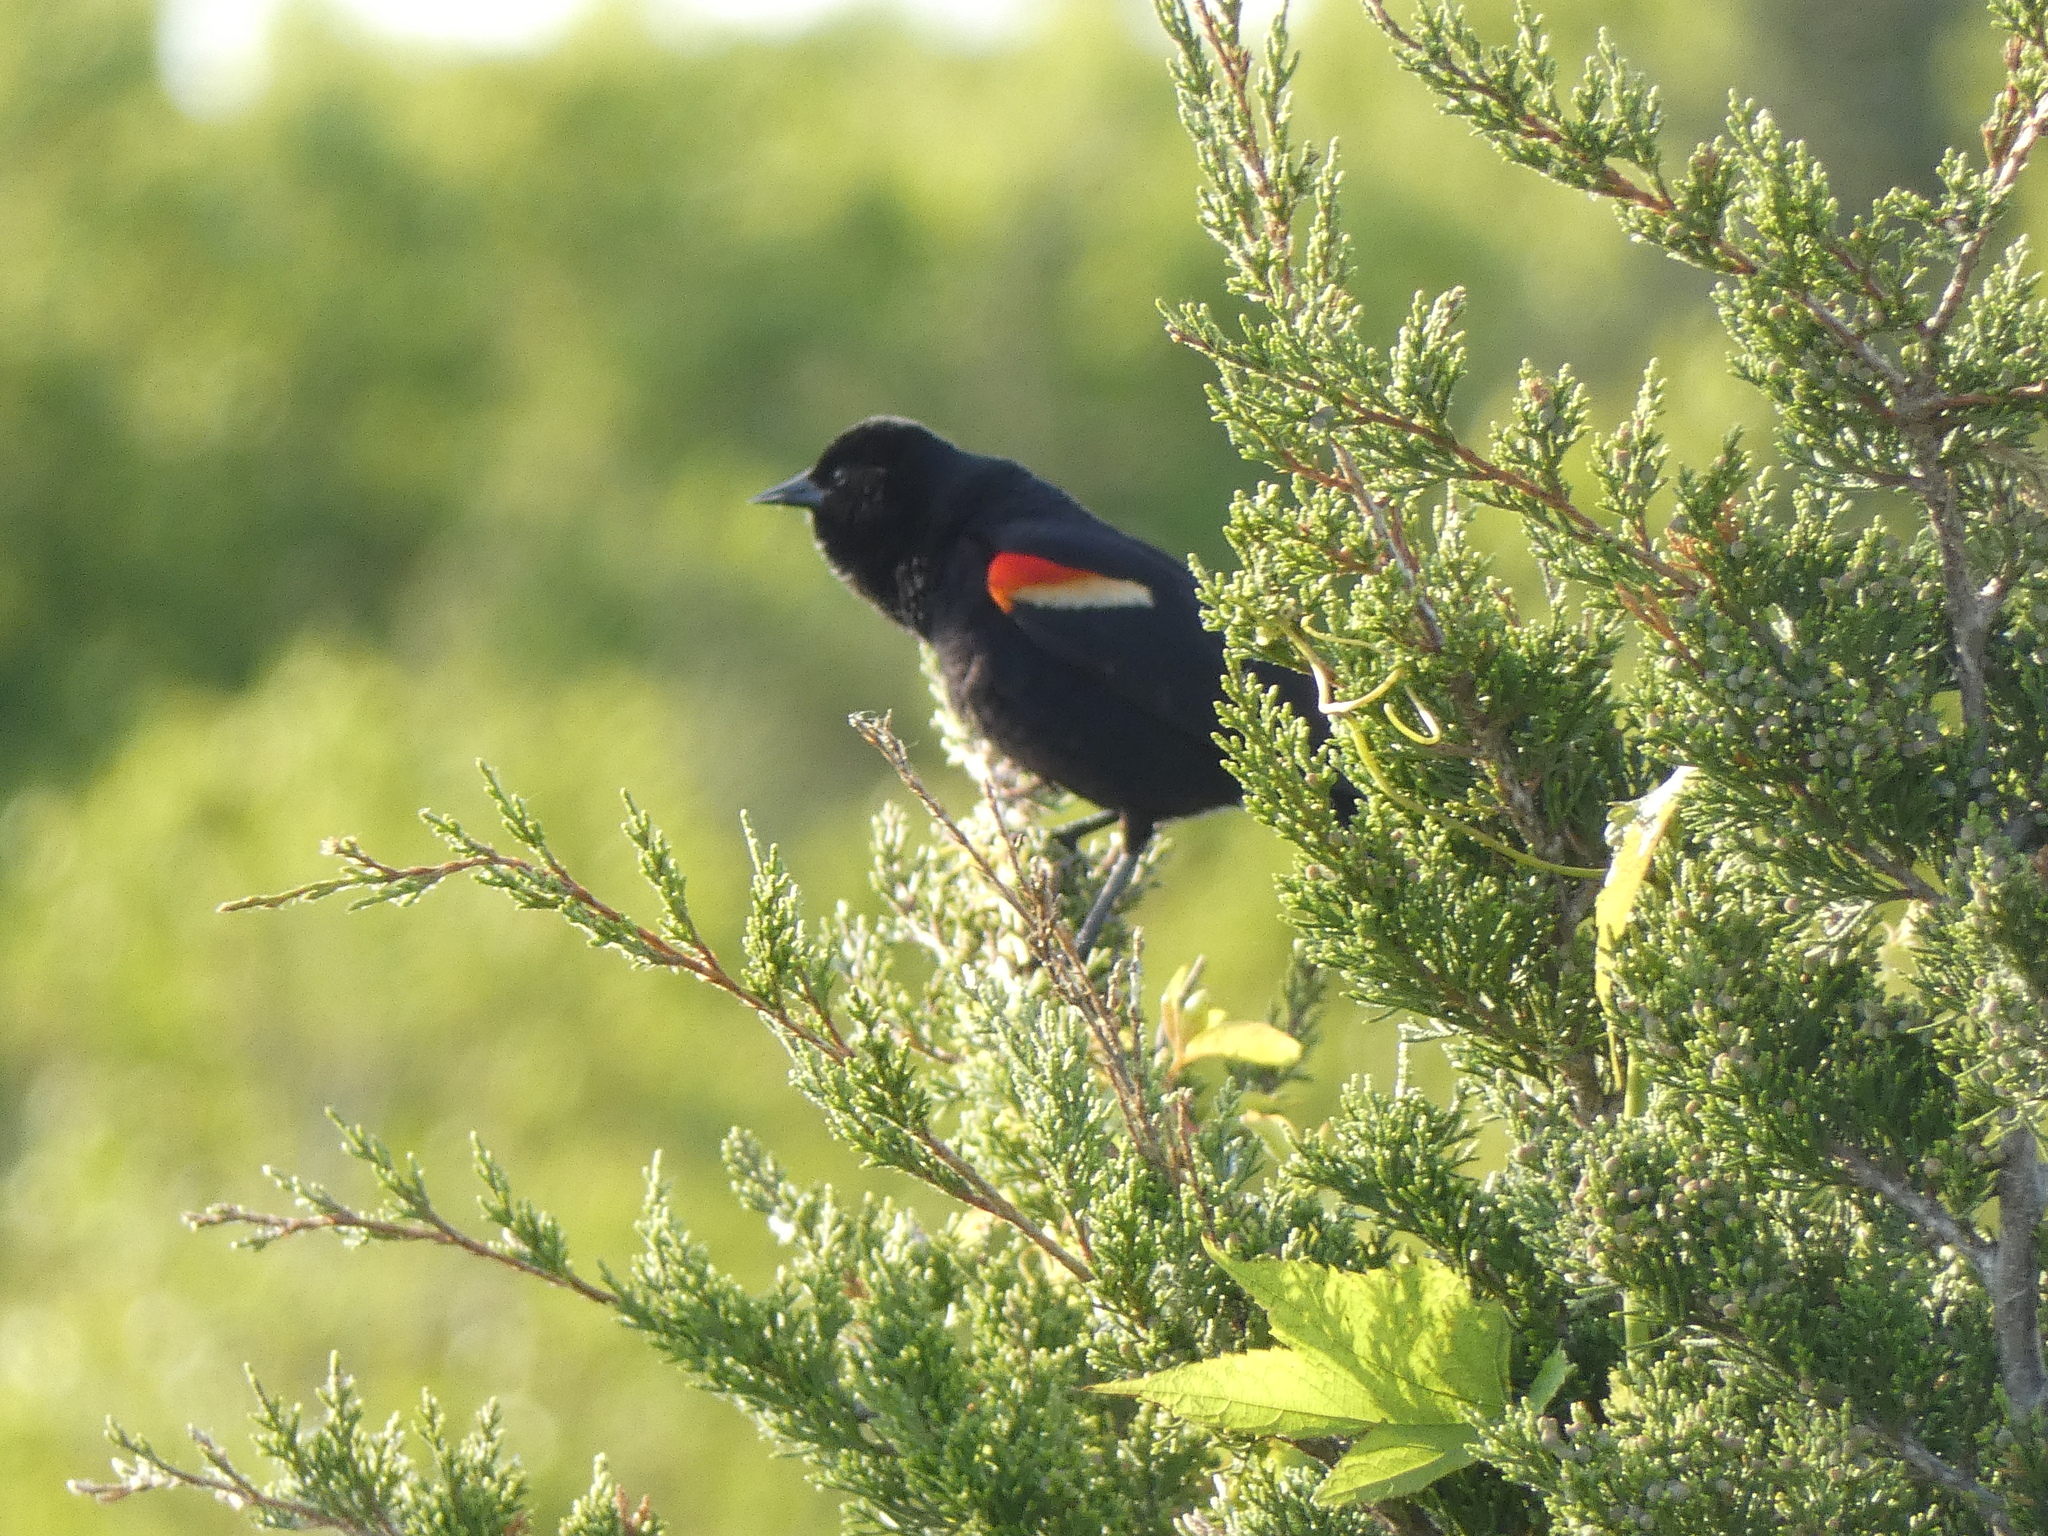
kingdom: Animalia
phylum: Chordata
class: Aves
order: Passeriformes
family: Icteridae
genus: Agelaius
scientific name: Agelaius phoeniceus
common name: Red-winged blackbird
